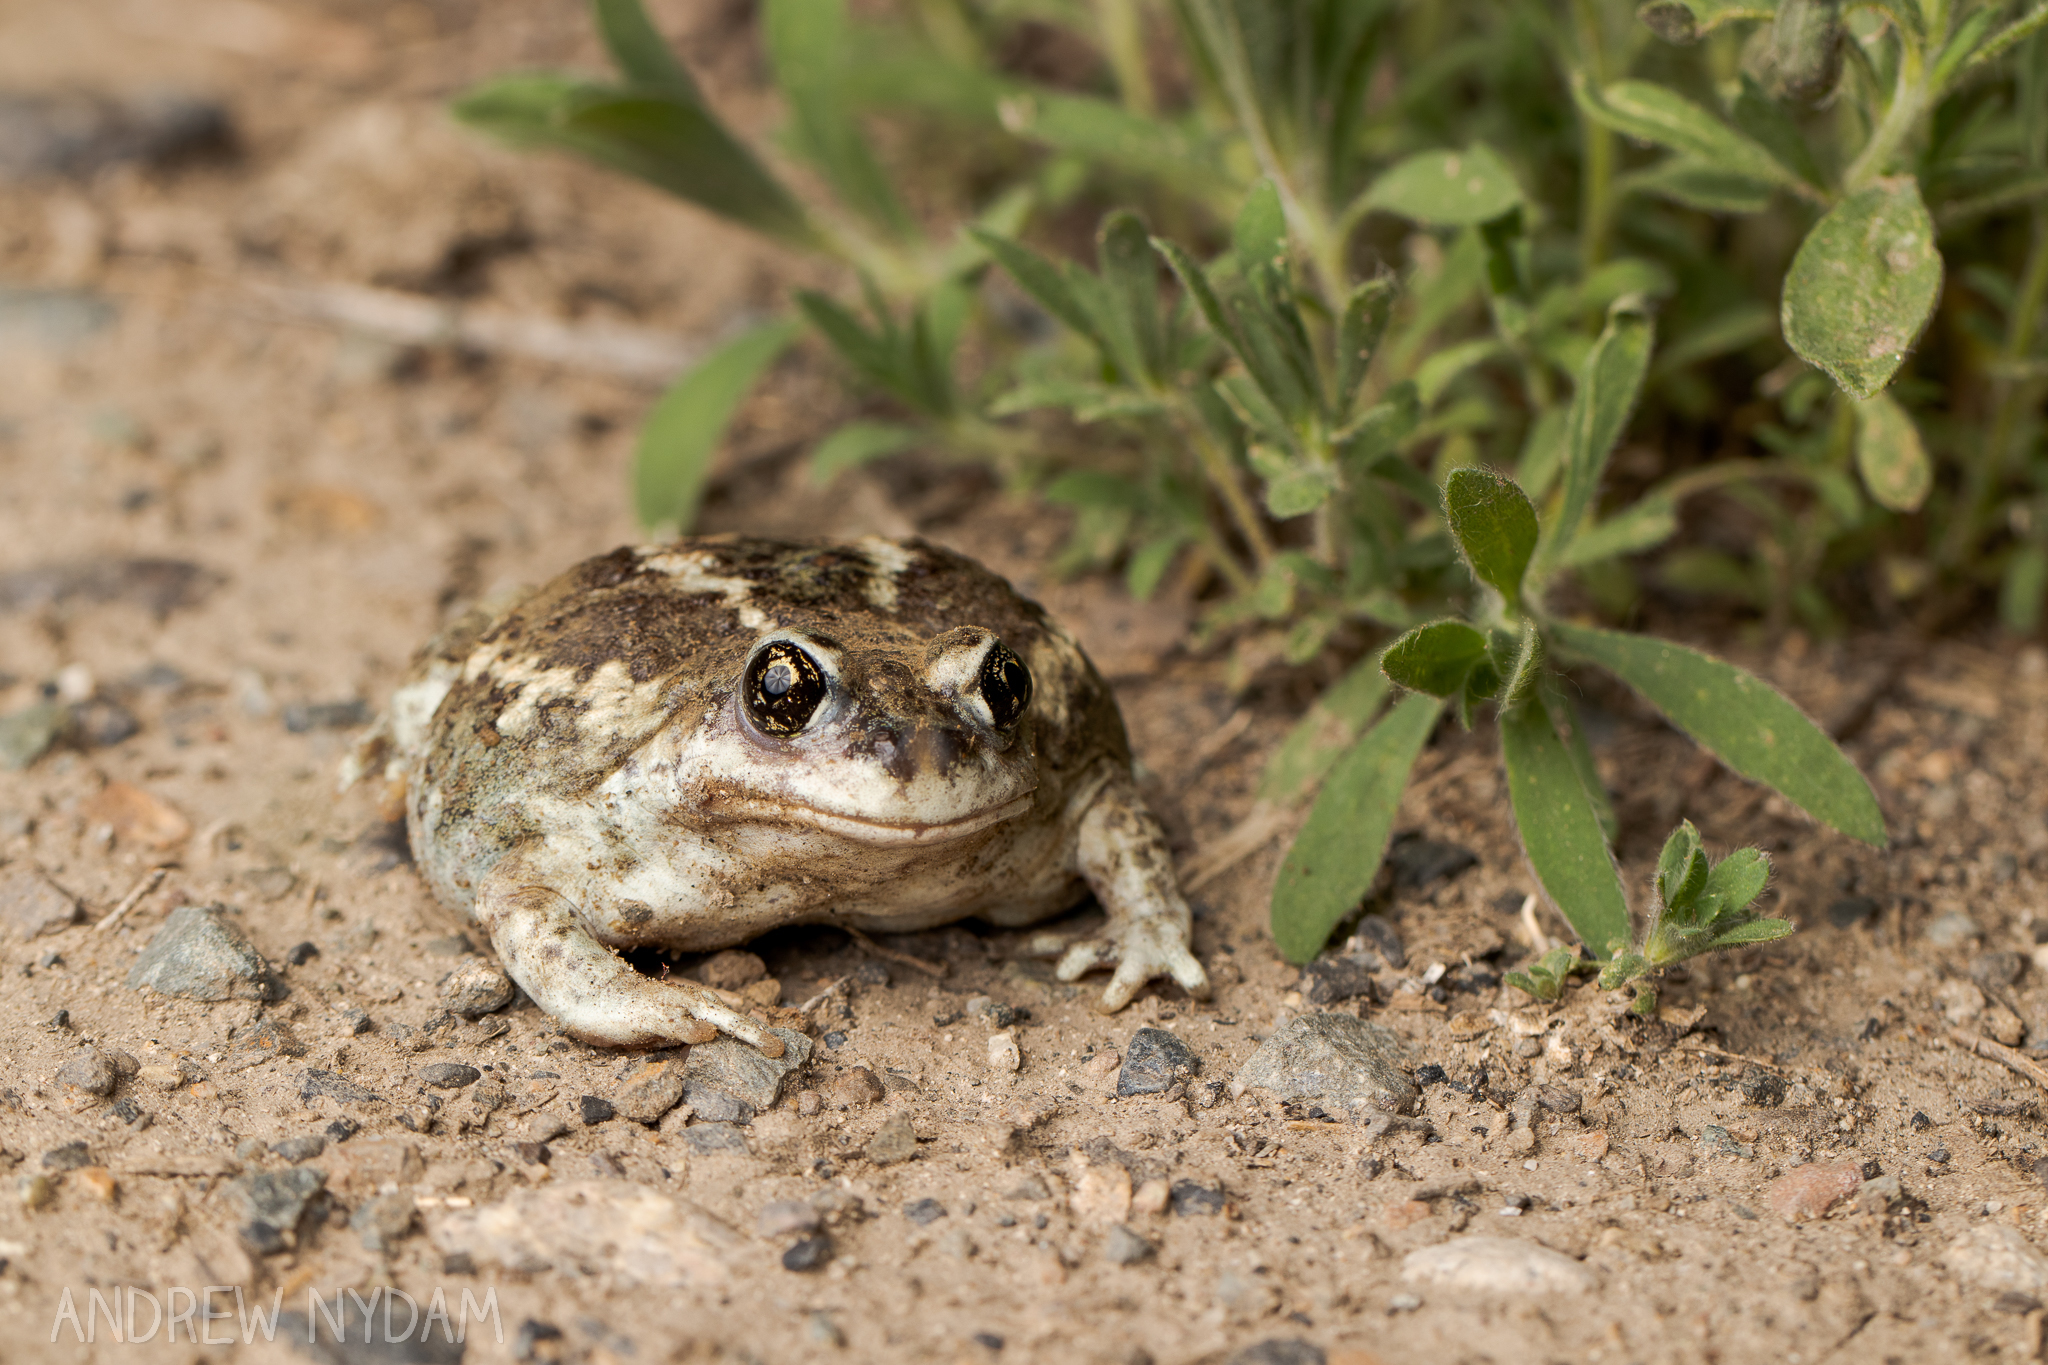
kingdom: Animalia
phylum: Chordata
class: Amphibia
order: Anura
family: Scaphiopodidae
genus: Spea
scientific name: Spea intermontana
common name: Great basin spadefoot
